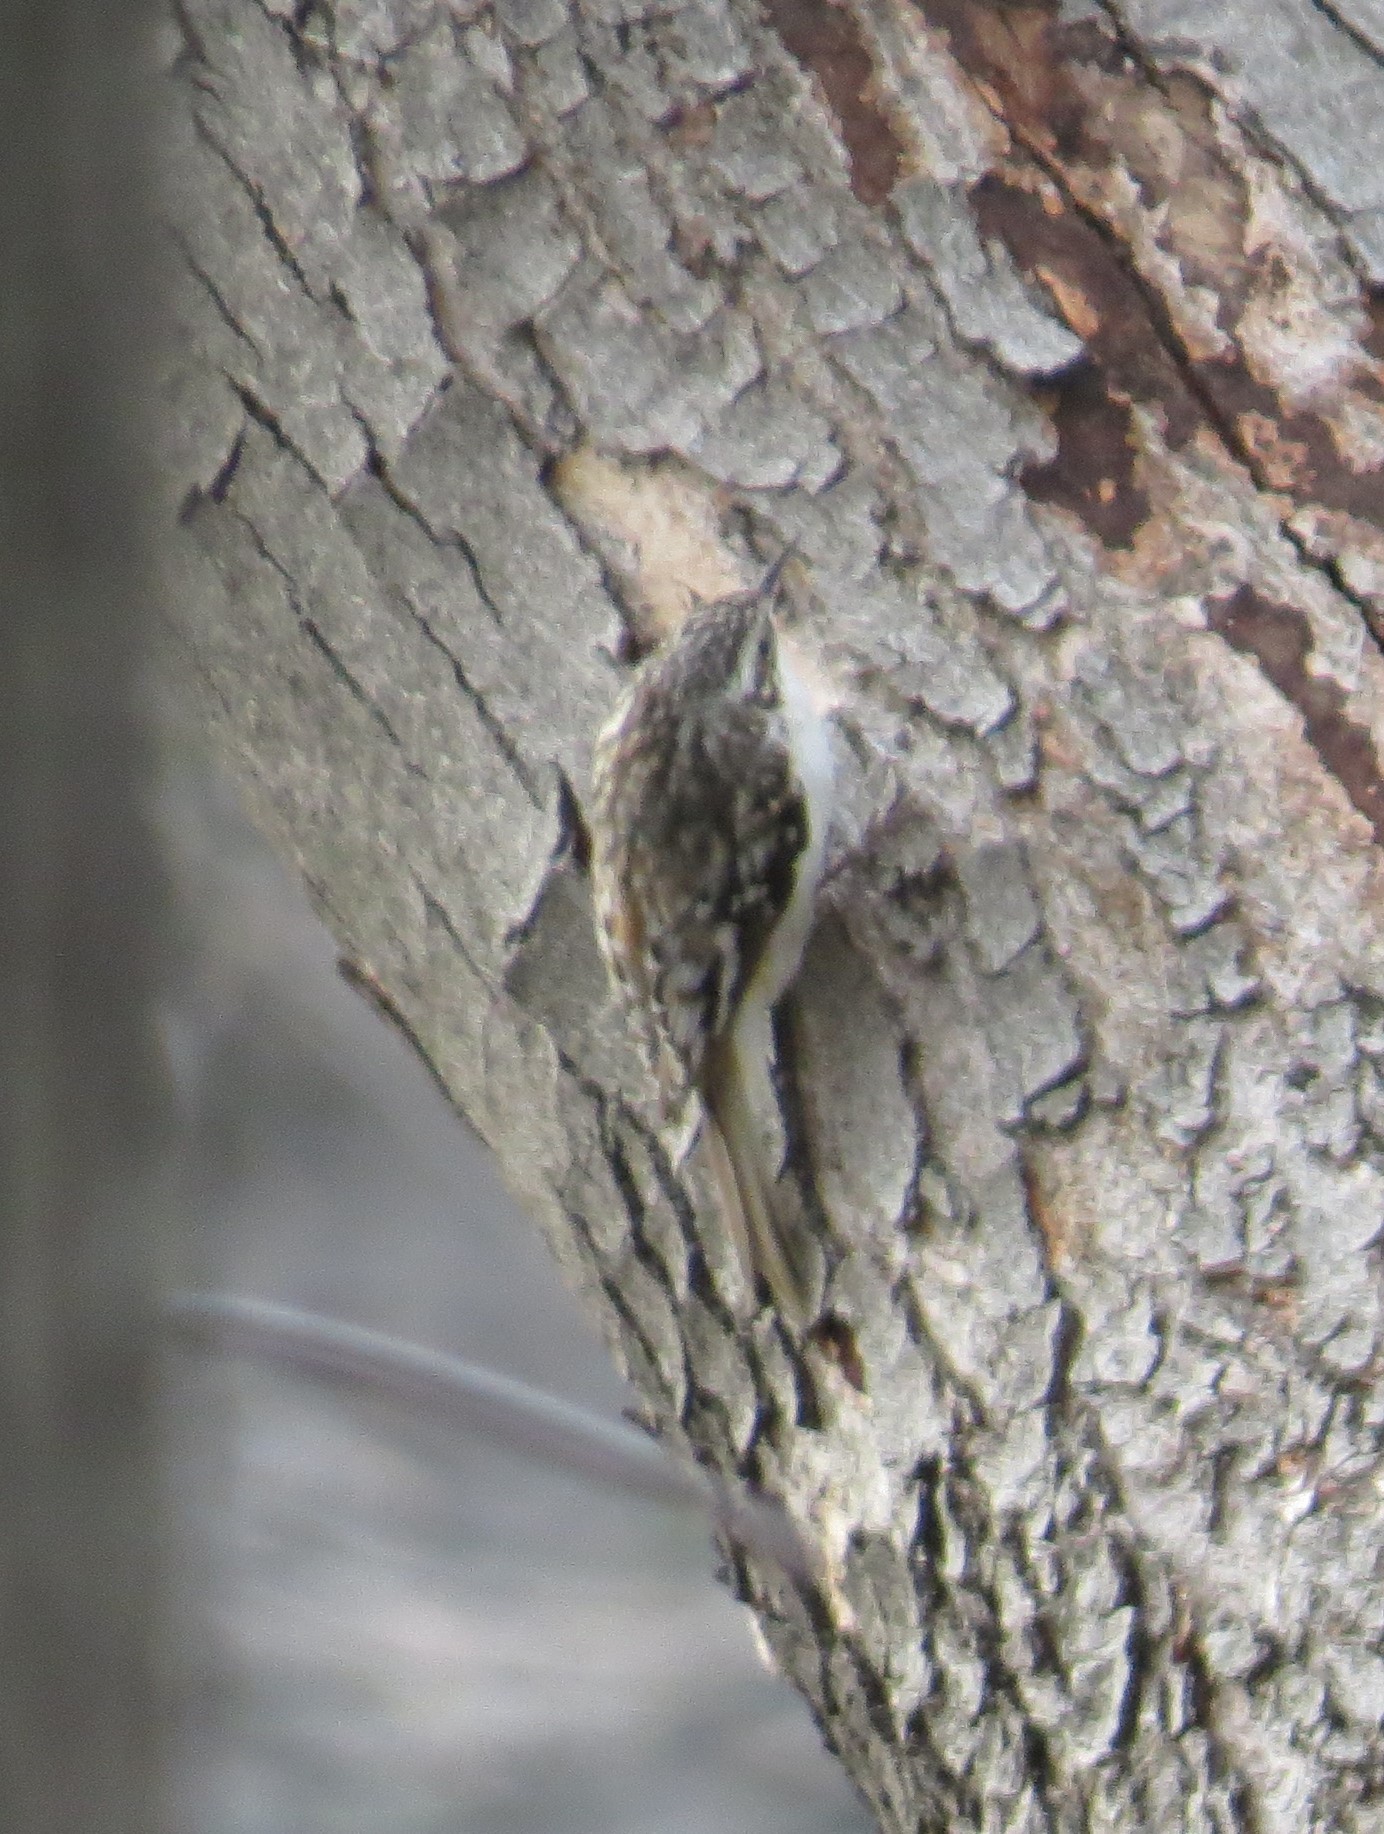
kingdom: Animalia
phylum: Chordata
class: Aves
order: Passeriformes
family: Certhiidae
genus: Certhia
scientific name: Certhia americana
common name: Brown creeper
